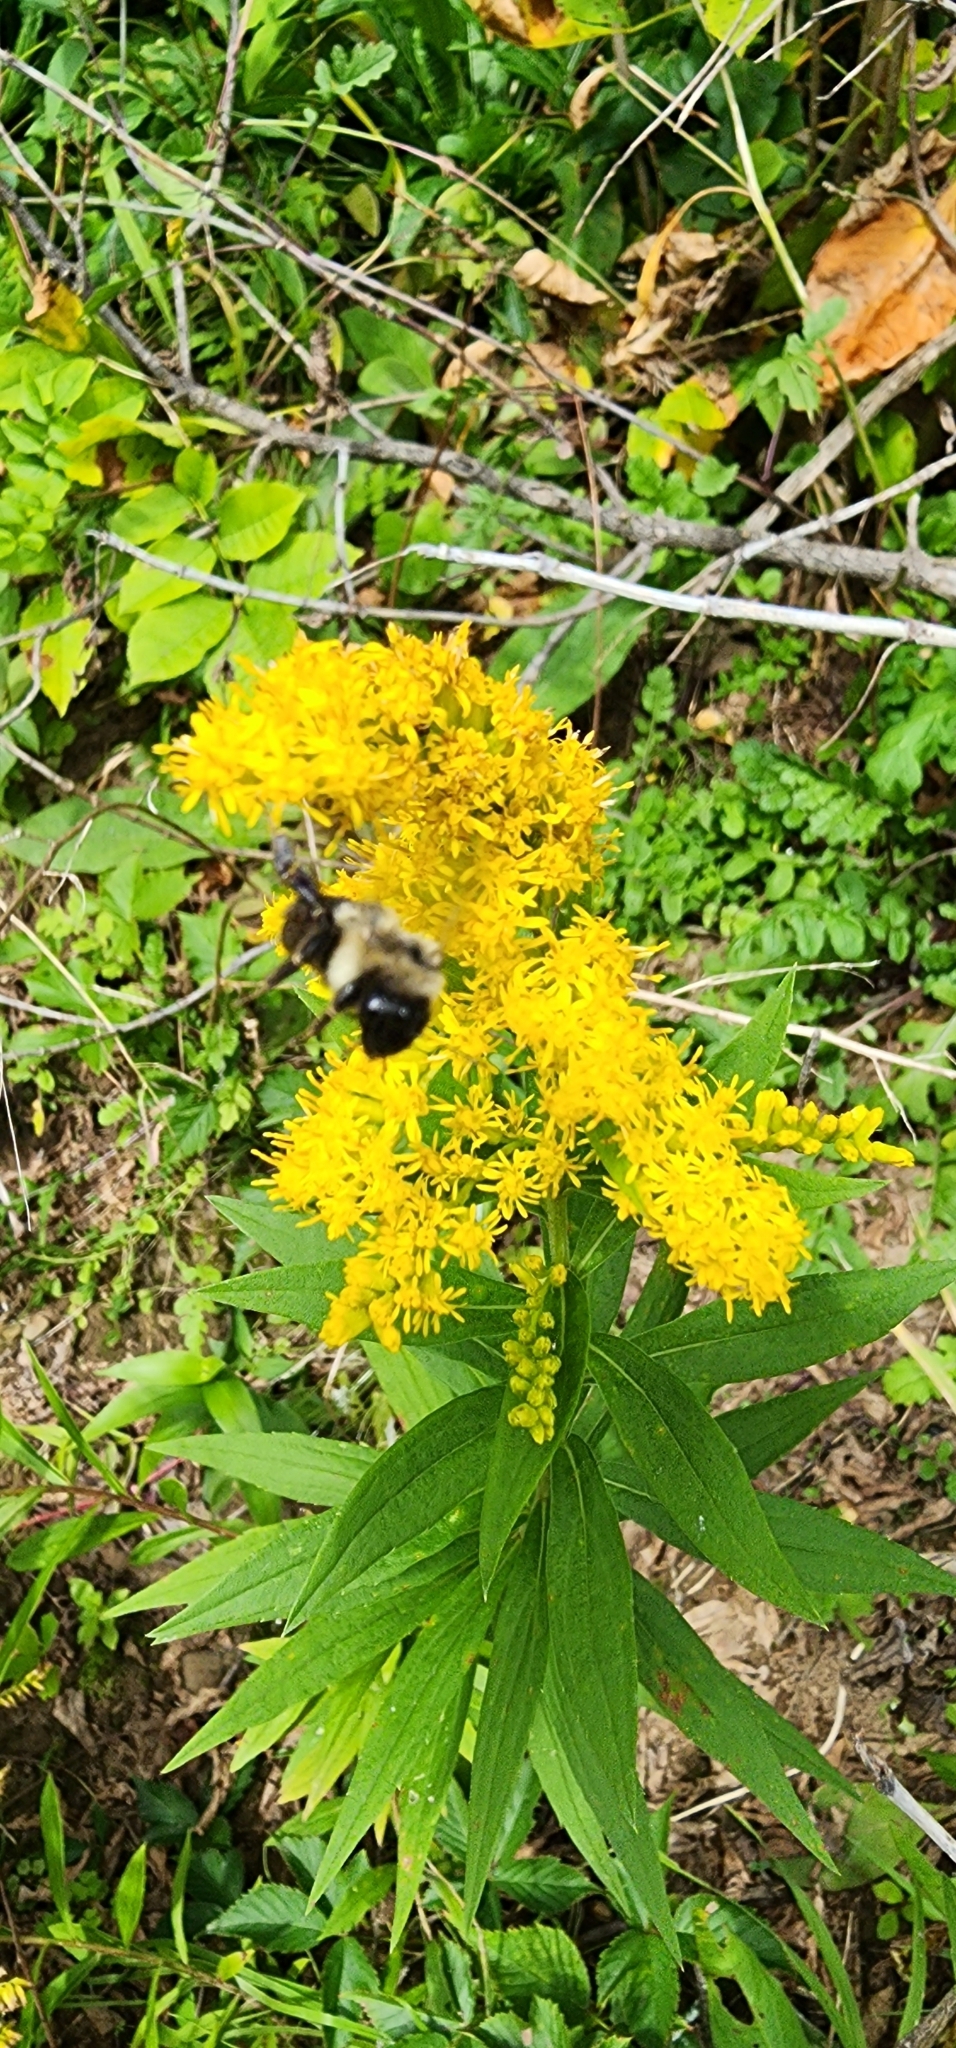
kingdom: Animalia
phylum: Arthropoda
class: Insecta
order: Hymenoptera
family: Apidae
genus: Bombus
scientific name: Bombus impatiens
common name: Common eastern bumble bee
